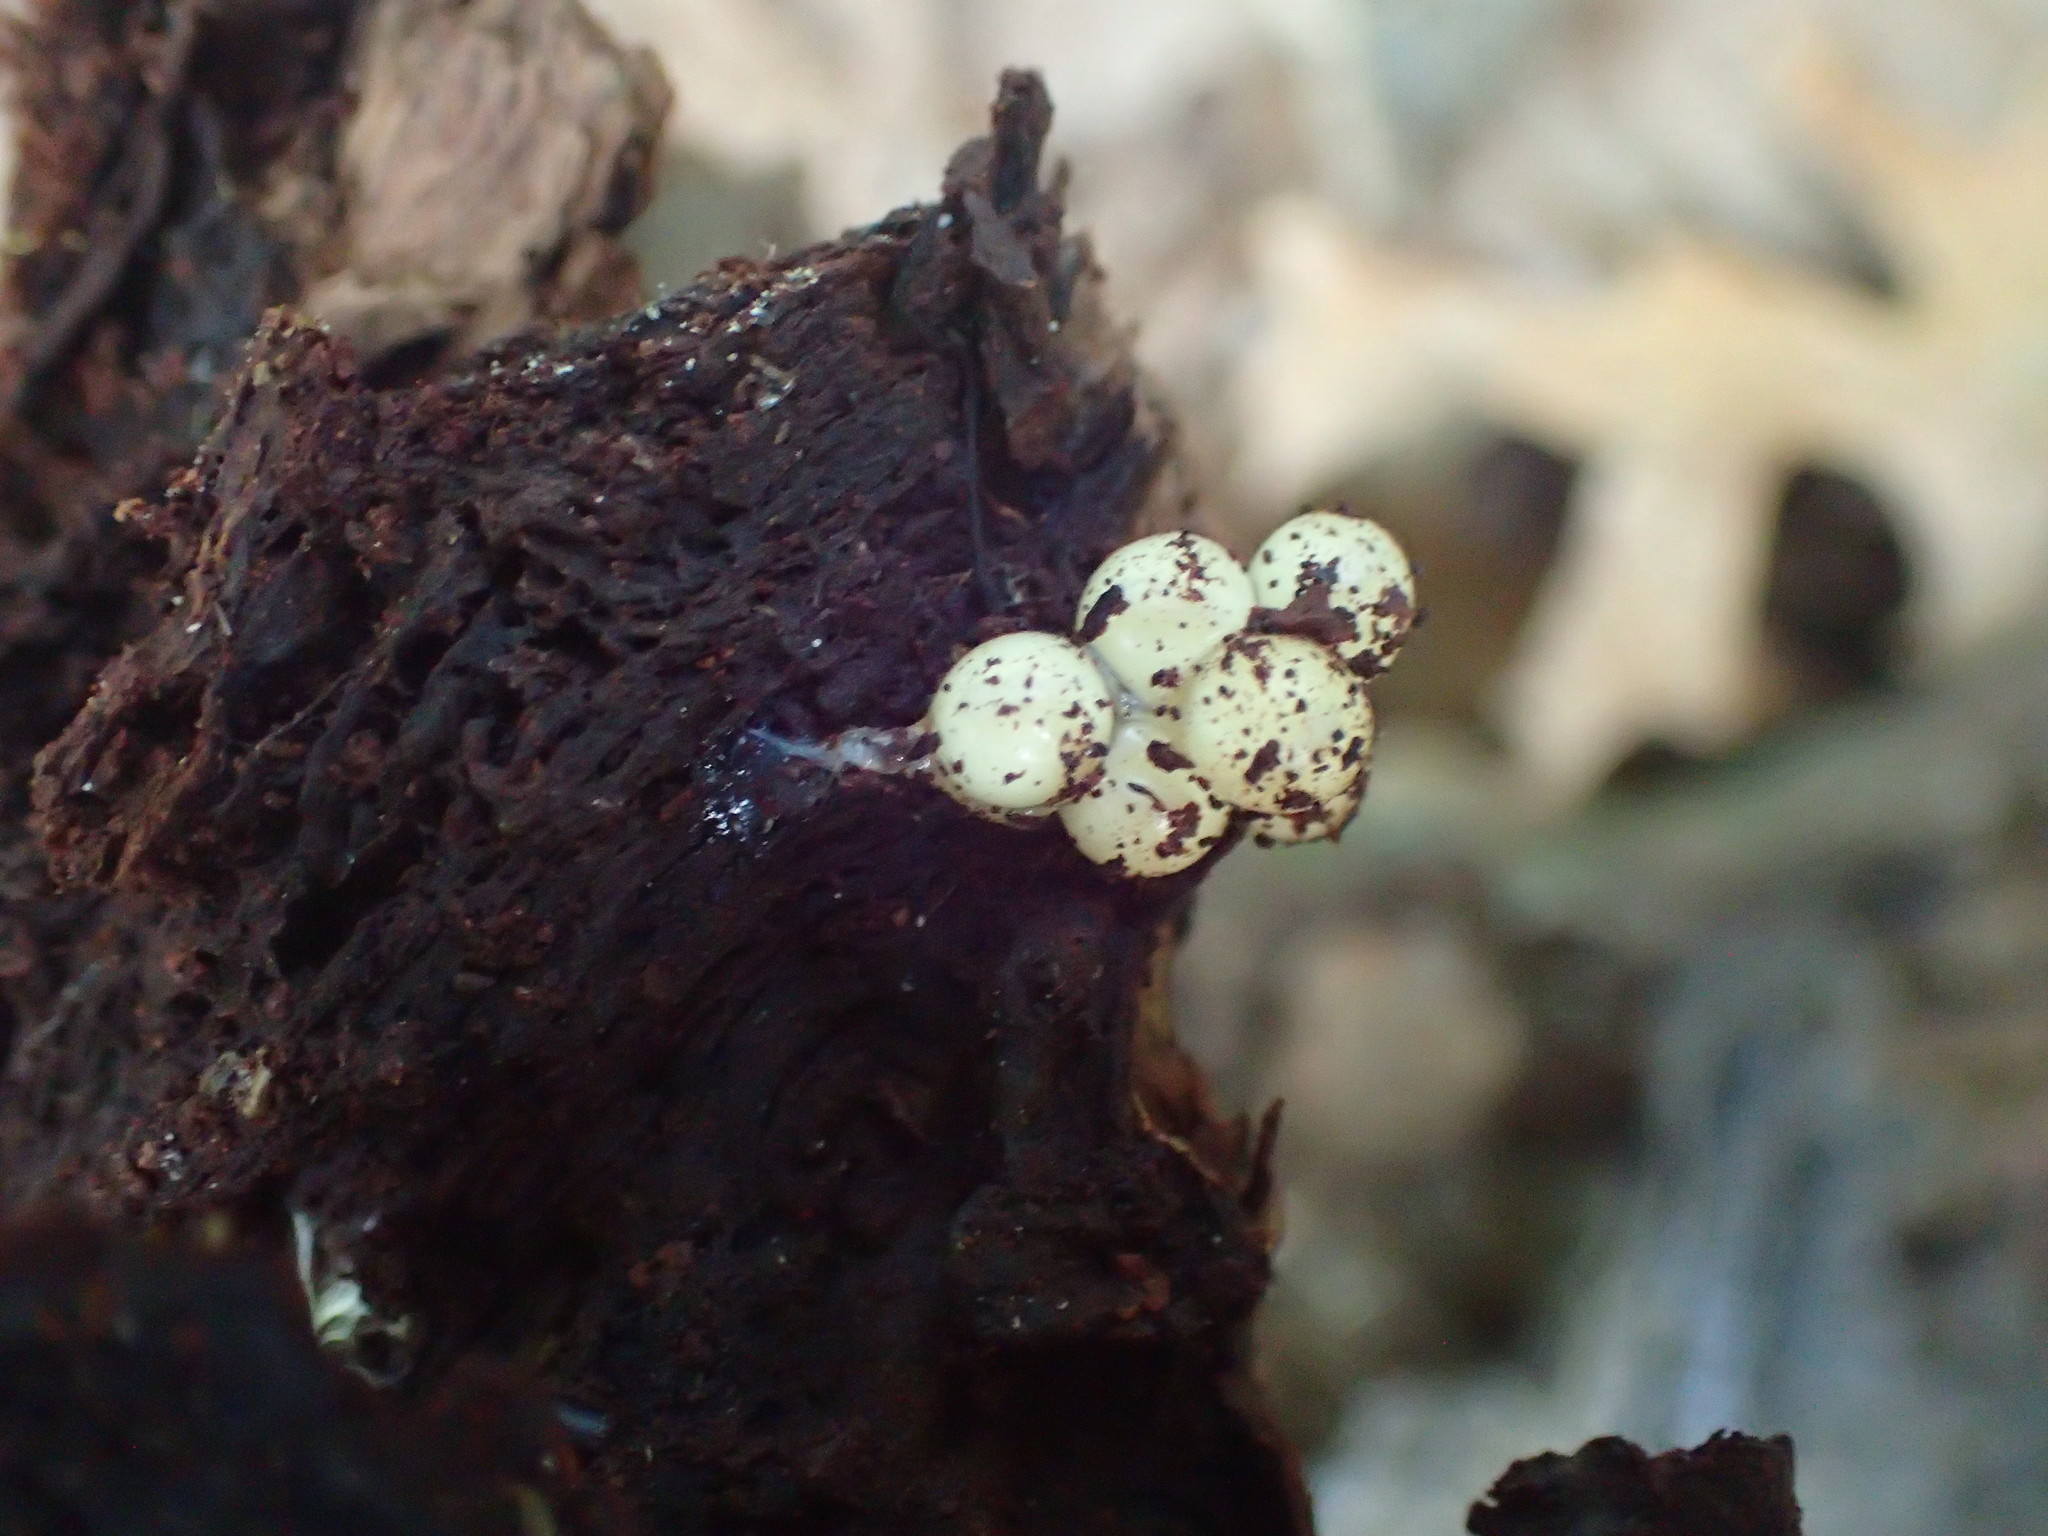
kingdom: Animalia
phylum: Chordata
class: Amphibia
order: Caudata
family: Plethodontidae
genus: Plethodon
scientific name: Plethodon cinereus
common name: Redback salamander
